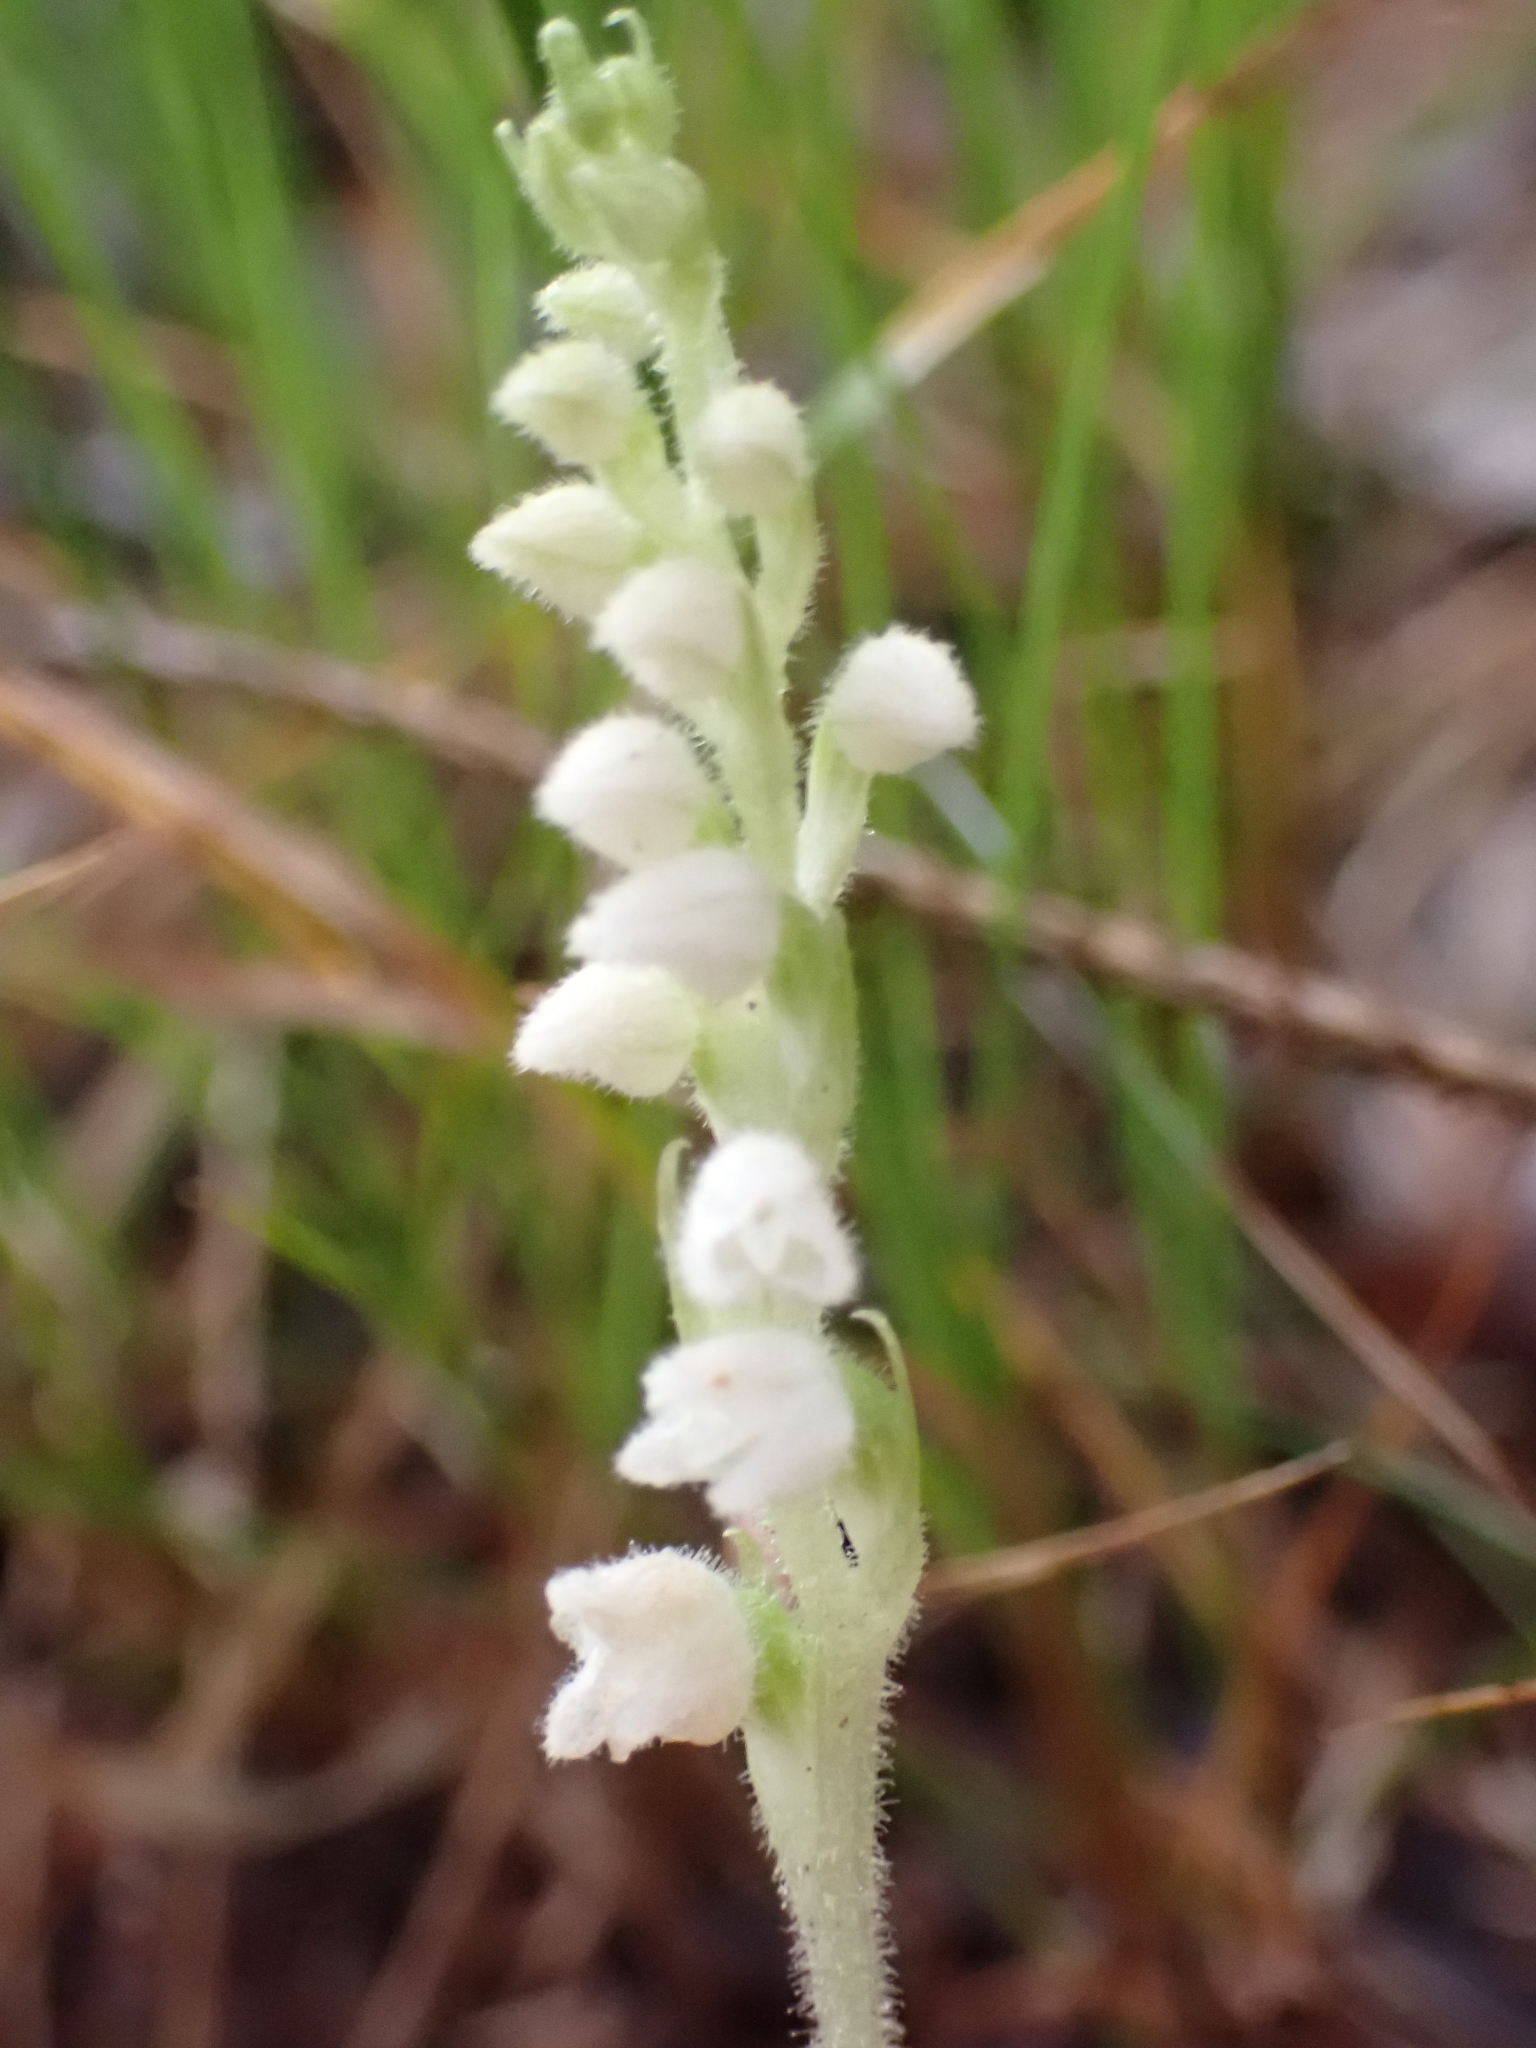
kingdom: Plantae
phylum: Tracheophyta
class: Liliopsida
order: Asparagales
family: Orchidaceae
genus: Goodyera
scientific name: Goodyera repens
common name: Creeping lady's-tresses
